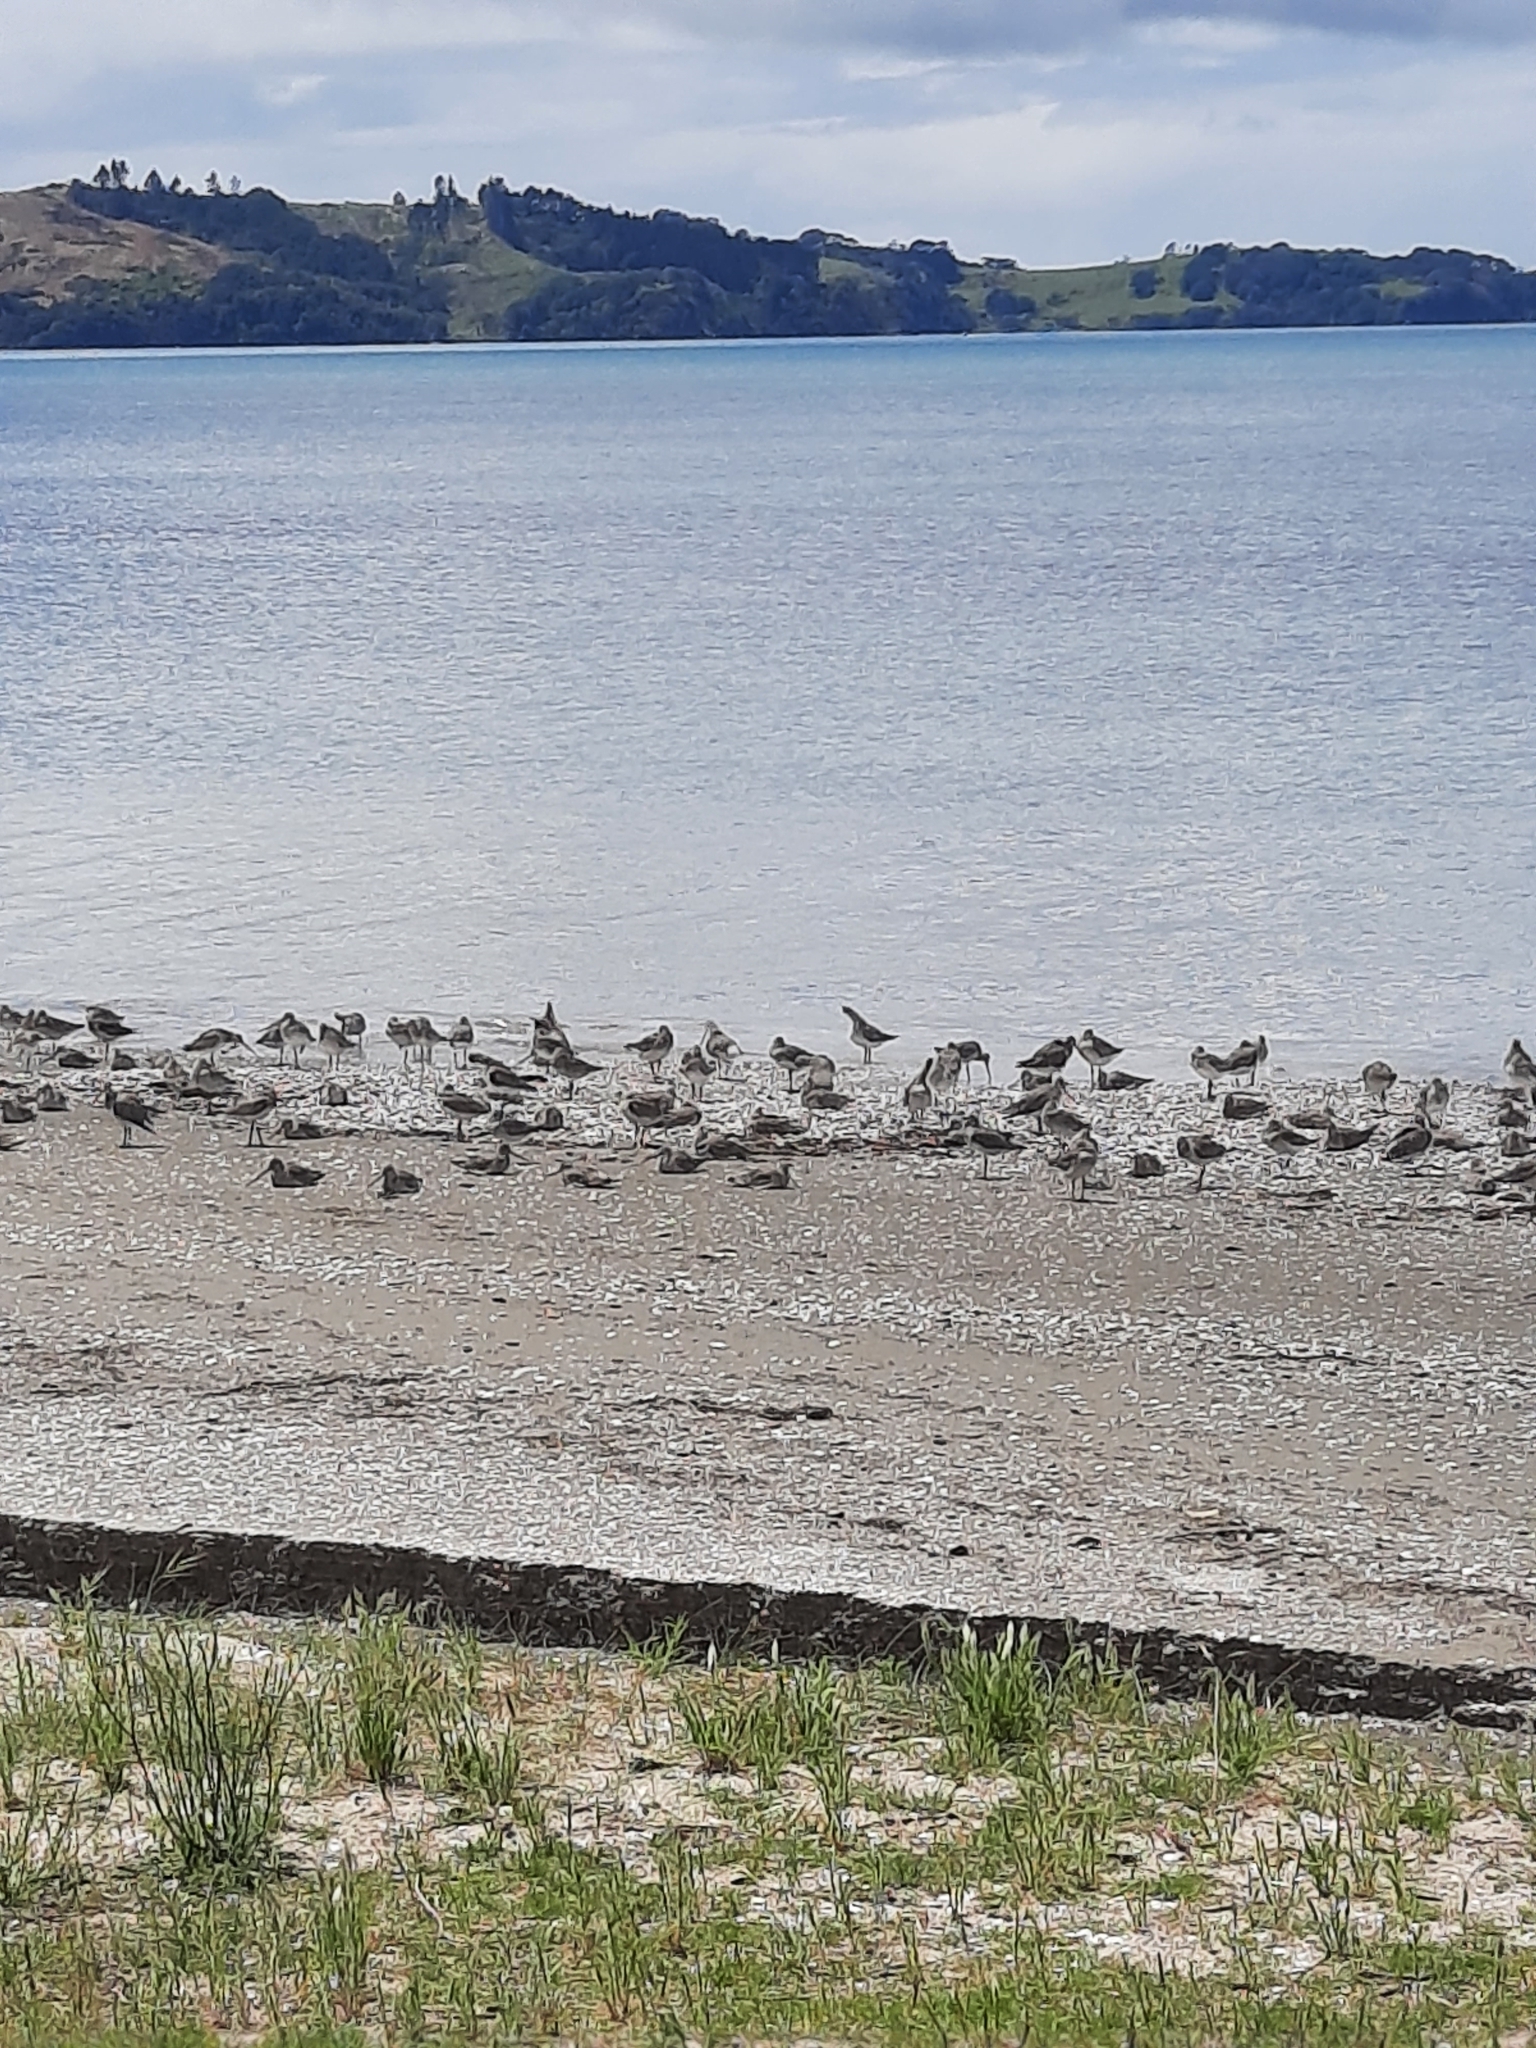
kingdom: Animalia
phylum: Chordata
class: Aves
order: Charadriiformes
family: Scolopacidae
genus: Limosa
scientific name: Limosa lapponica
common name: Bar-tailed godwit
